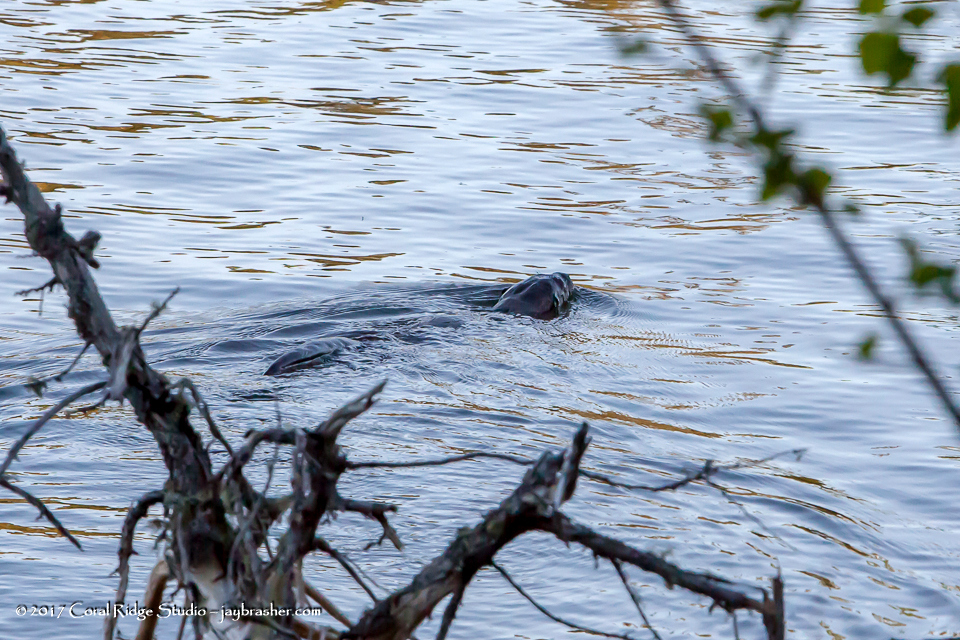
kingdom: Animalia
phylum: Chordata
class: Mammalia
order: Carnivora
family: Mustelidae
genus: Lontra
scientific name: Lontra canadensis
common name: North american river otter
